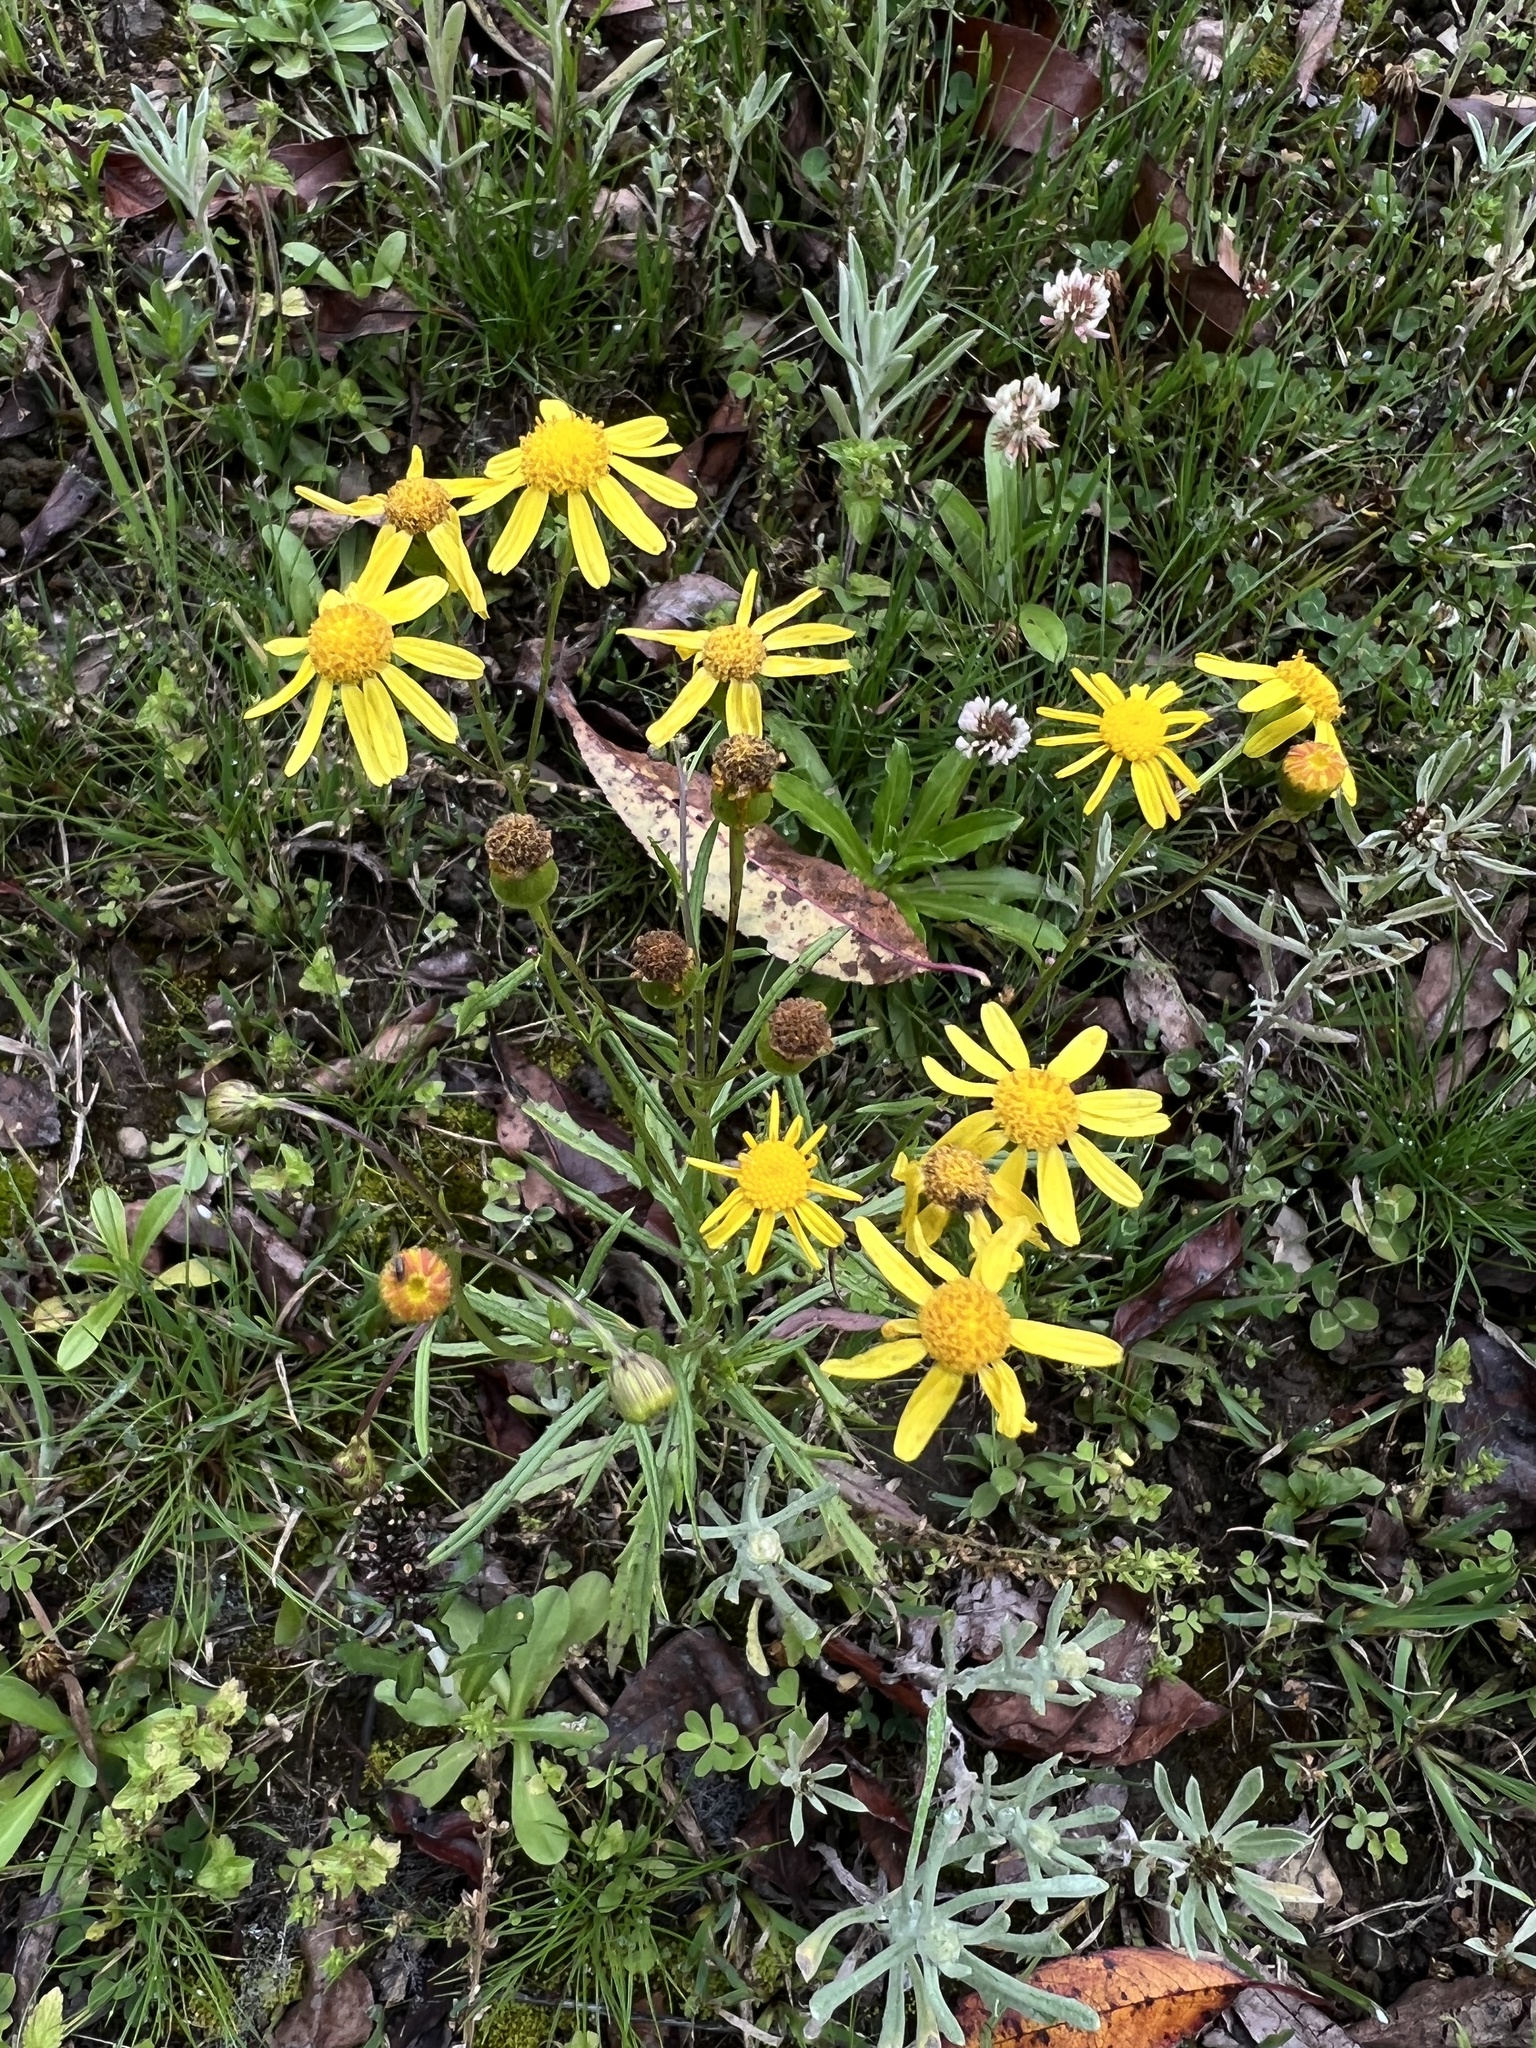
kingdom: Plantae
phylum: Tracheophyta
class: Magnoliopsida
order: Asterales
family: Asteraceae
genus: Senecio
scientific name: Senecio madagascariensis
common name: Madagascar ragwort
